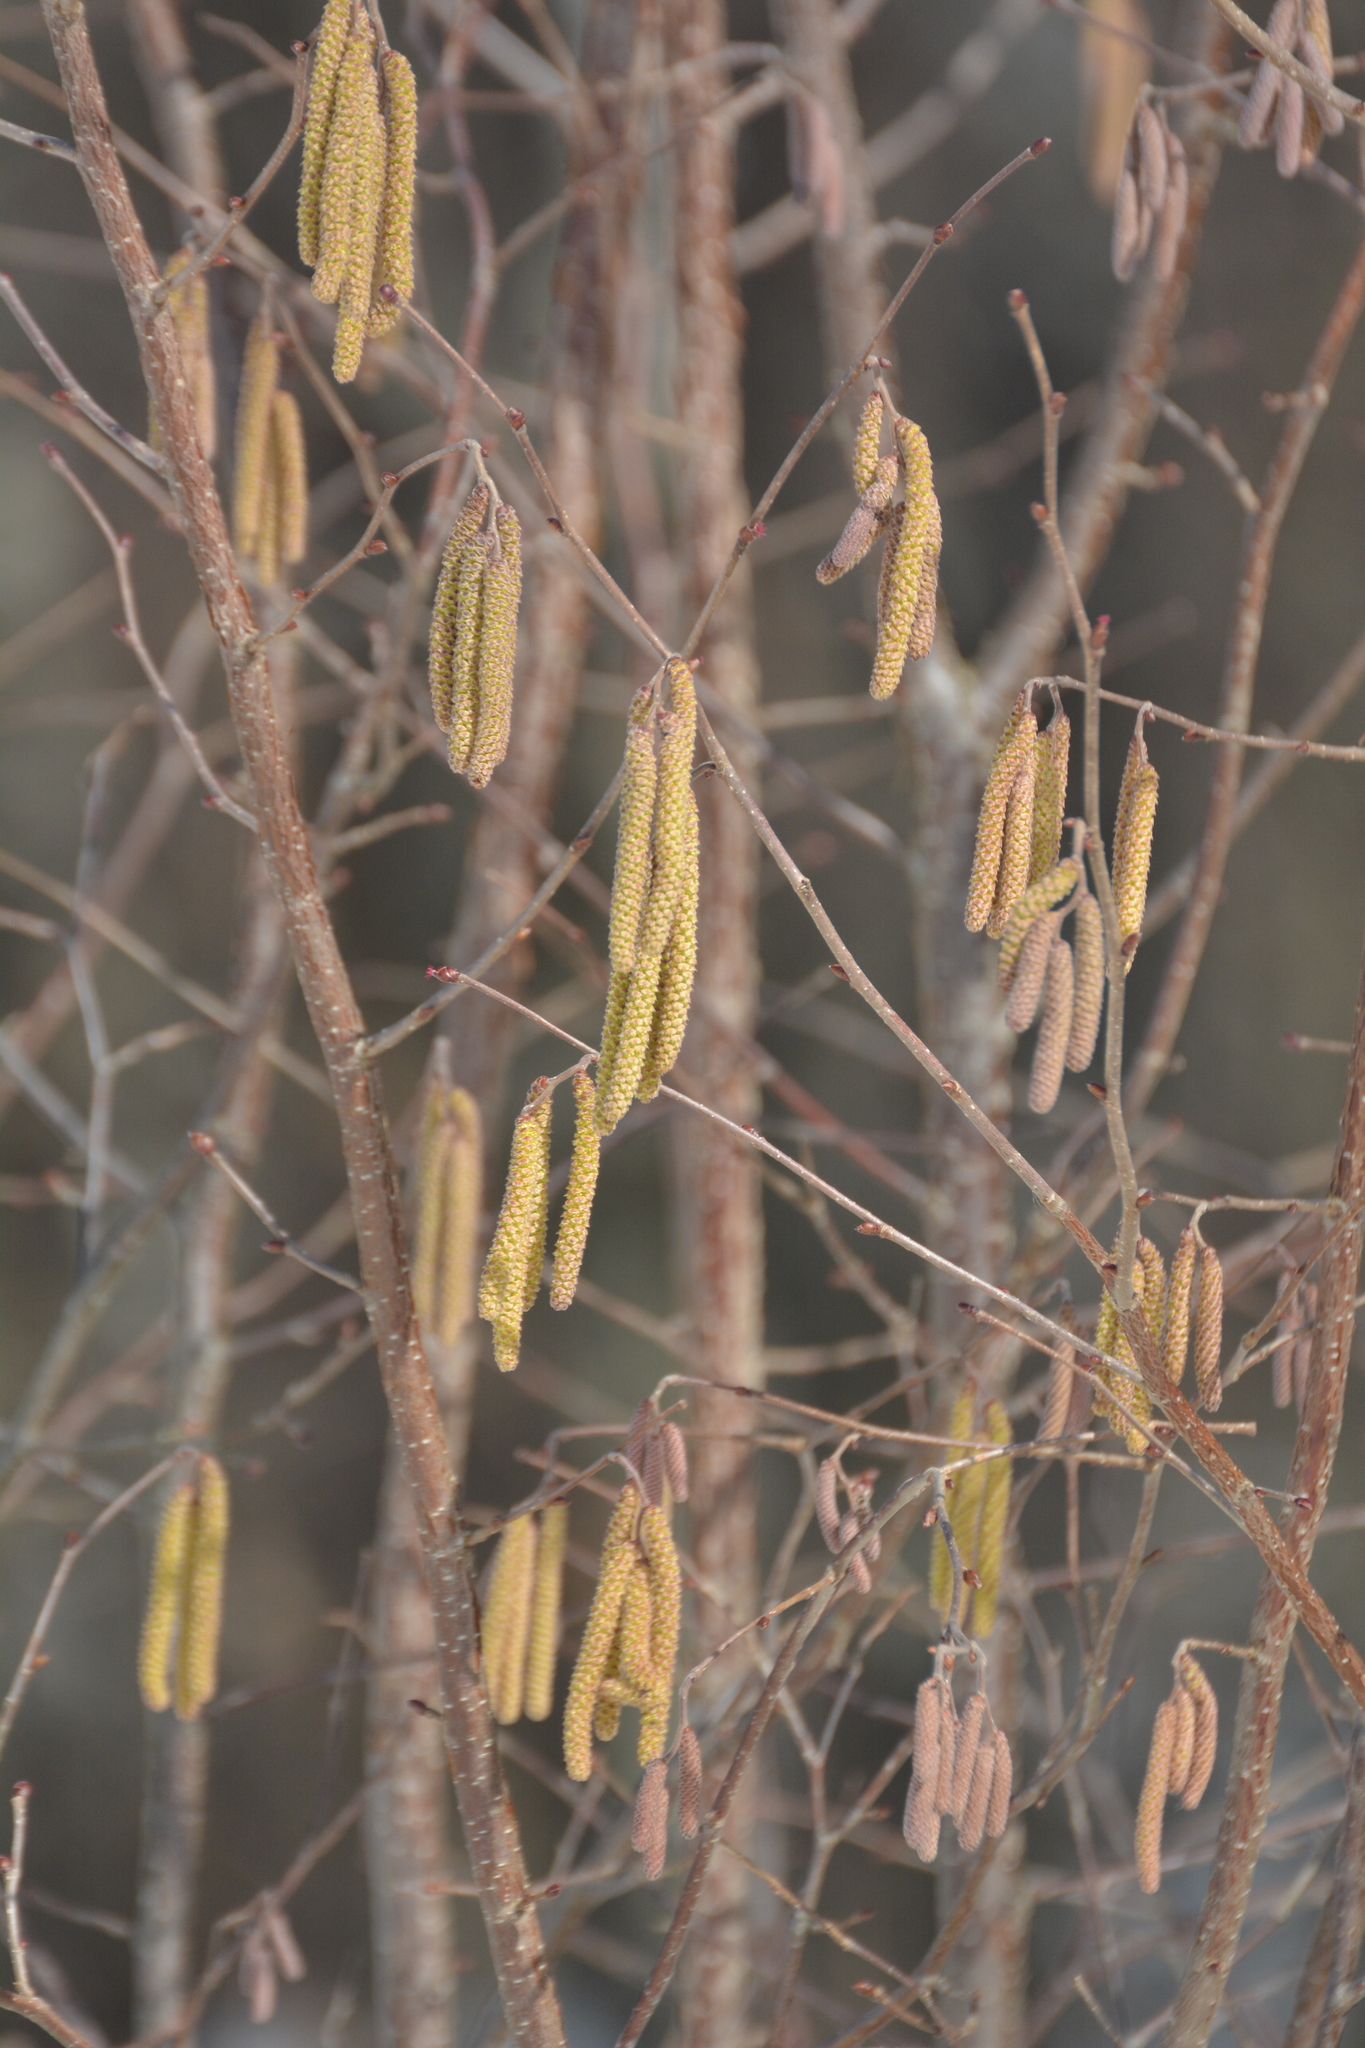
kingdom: Plantae
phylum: Tracheophyta
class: Magnoliopsida
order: Fagales
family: Betulaceae
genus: Corylus
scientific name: Corylus avellana
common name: European hazel
